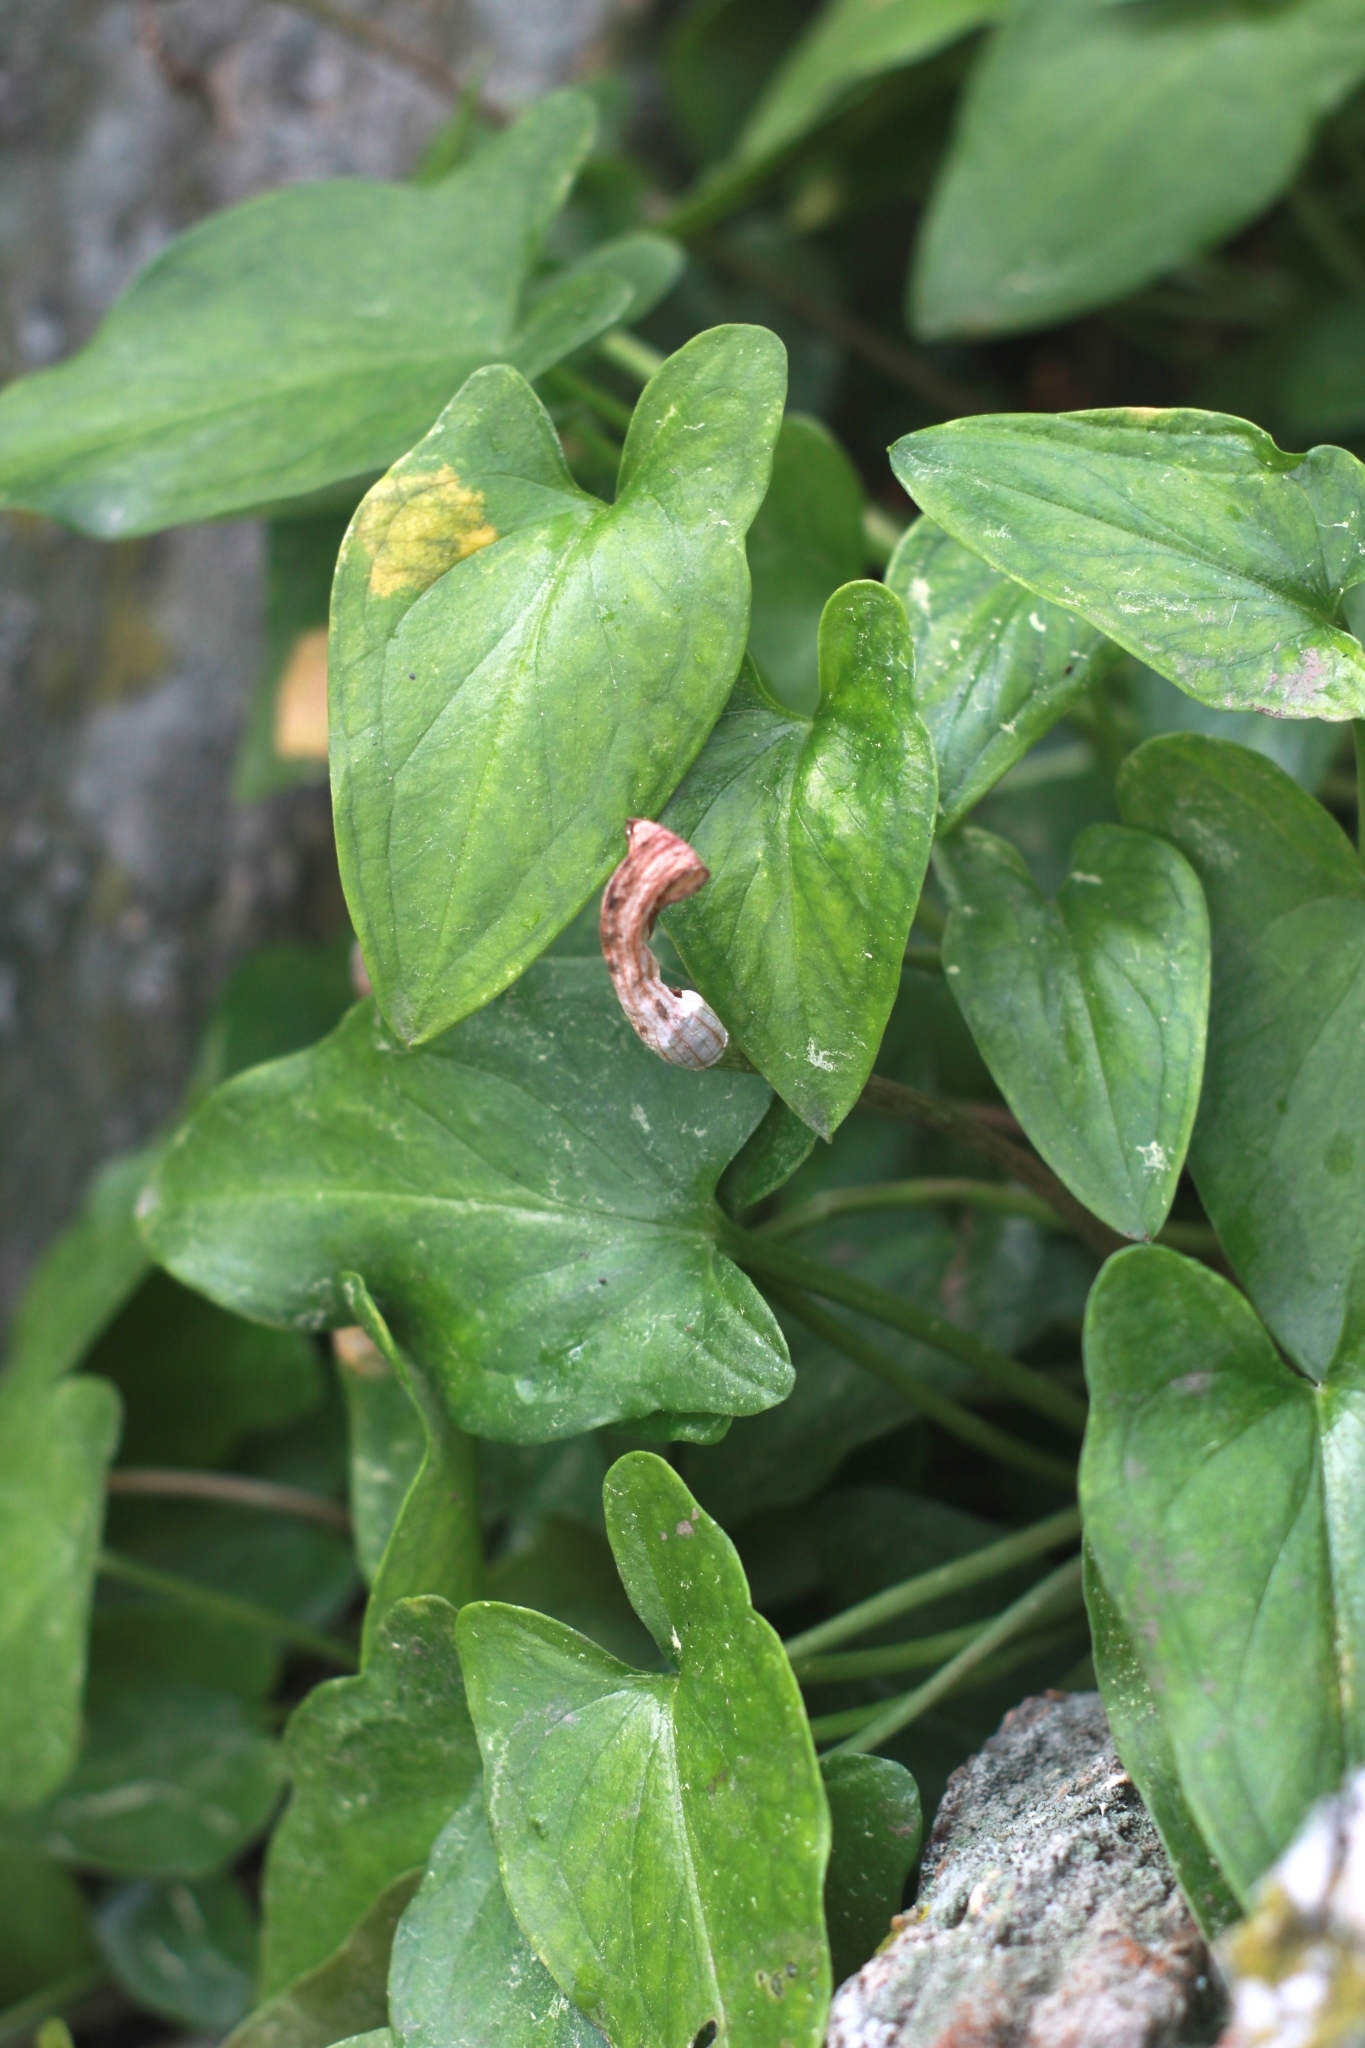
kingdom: Plantae
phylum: Tracheophyta
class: Liliopsida
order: Alismatales
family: Araceae
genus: Arisarum
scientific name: Arisarum vulgare
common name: Common arisarum
